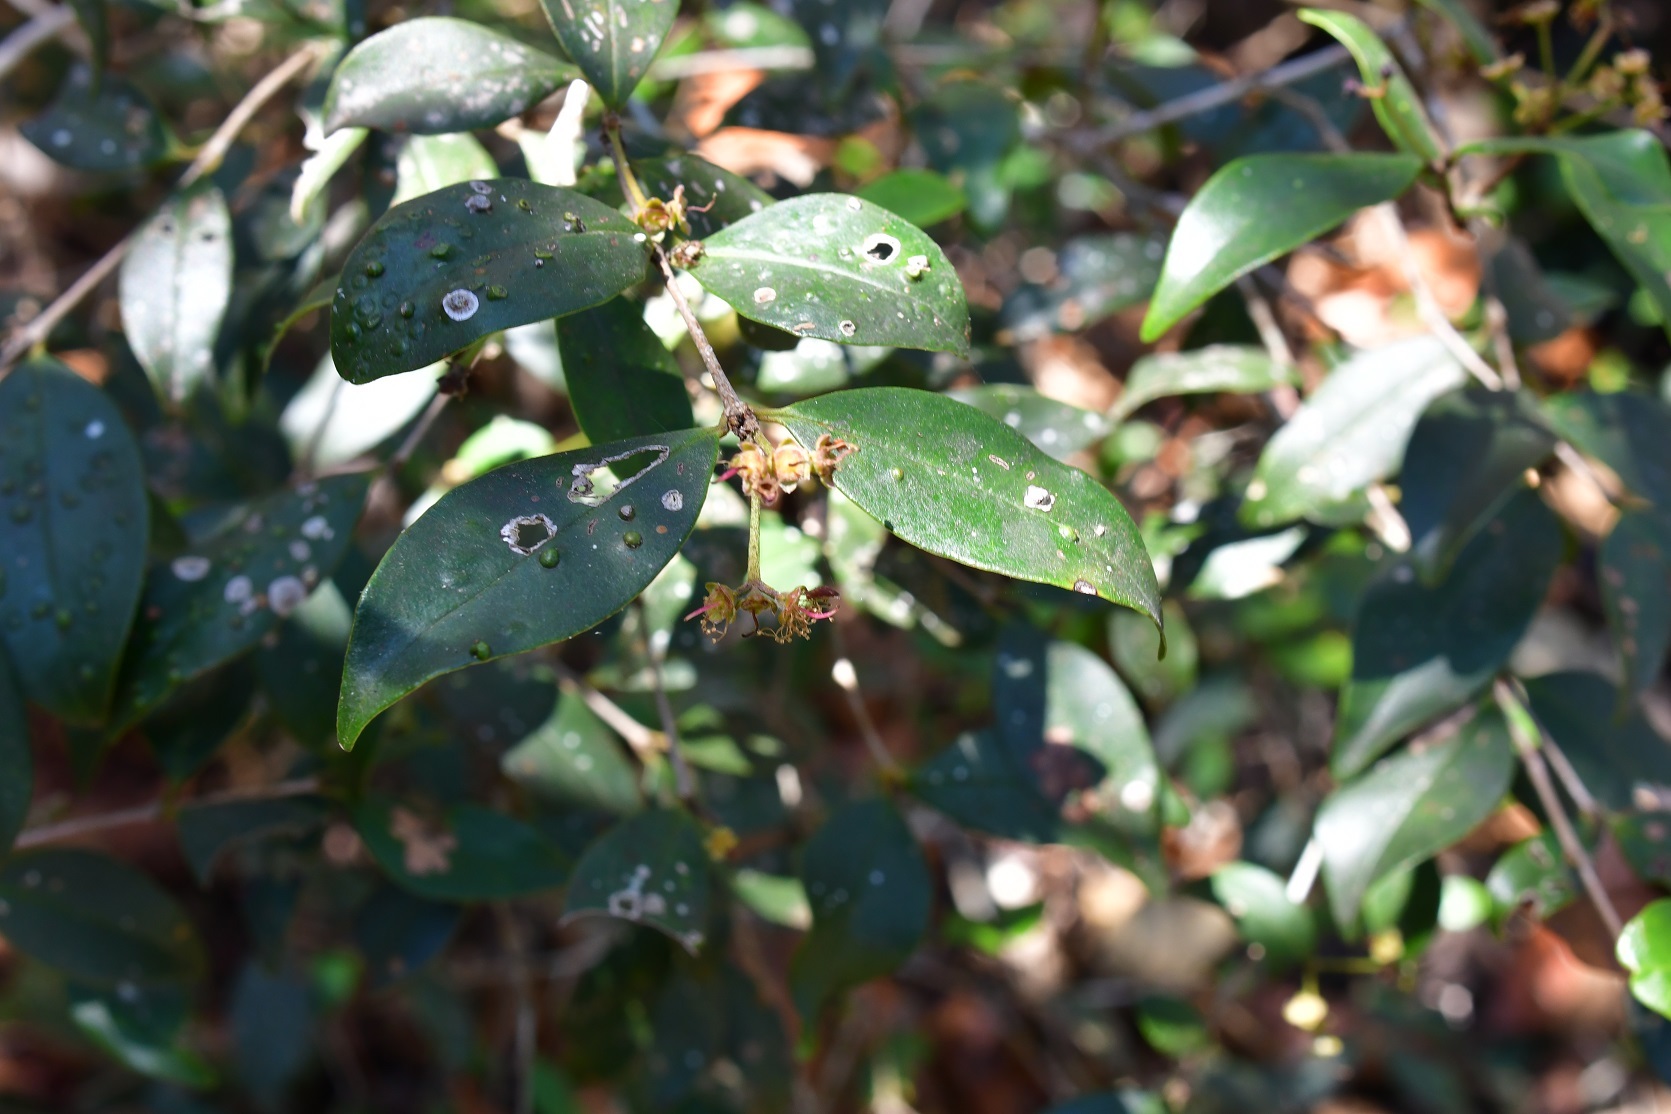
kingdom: Plantae
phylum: Tracheophyta
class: Magnoliopsida
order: Myrtales
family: Myrtaceae
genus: Myrcianthes
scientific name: Myrcianthes fragrans
